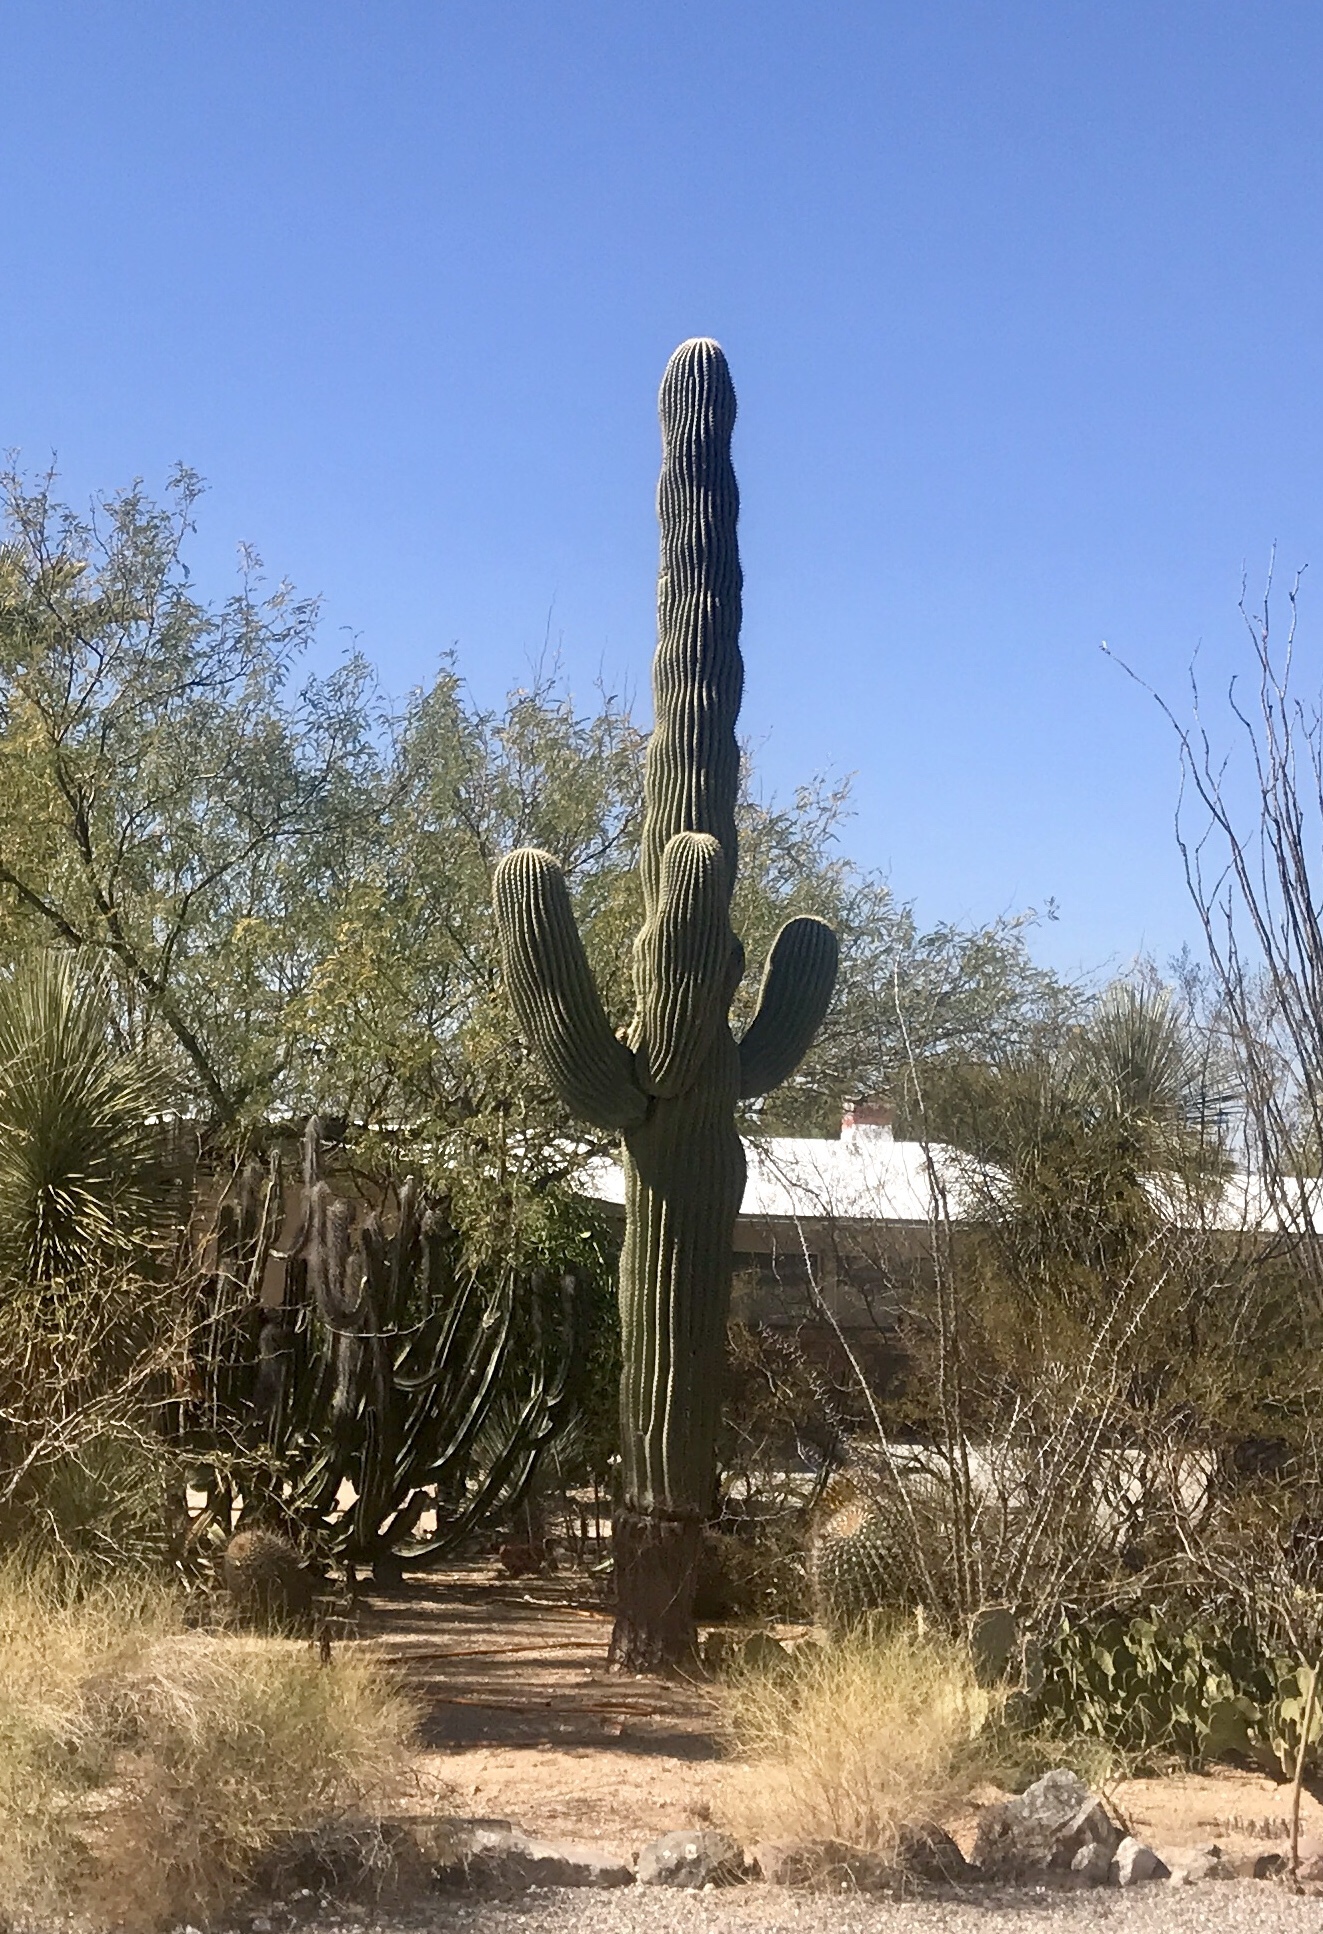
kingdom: Plantae
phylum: Tracheophyta
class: Magnoliopsida
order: Caryophyllales
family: Cactaceae
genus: Carnegiea
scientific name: Carnegiea gigantea
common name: Saguaro
